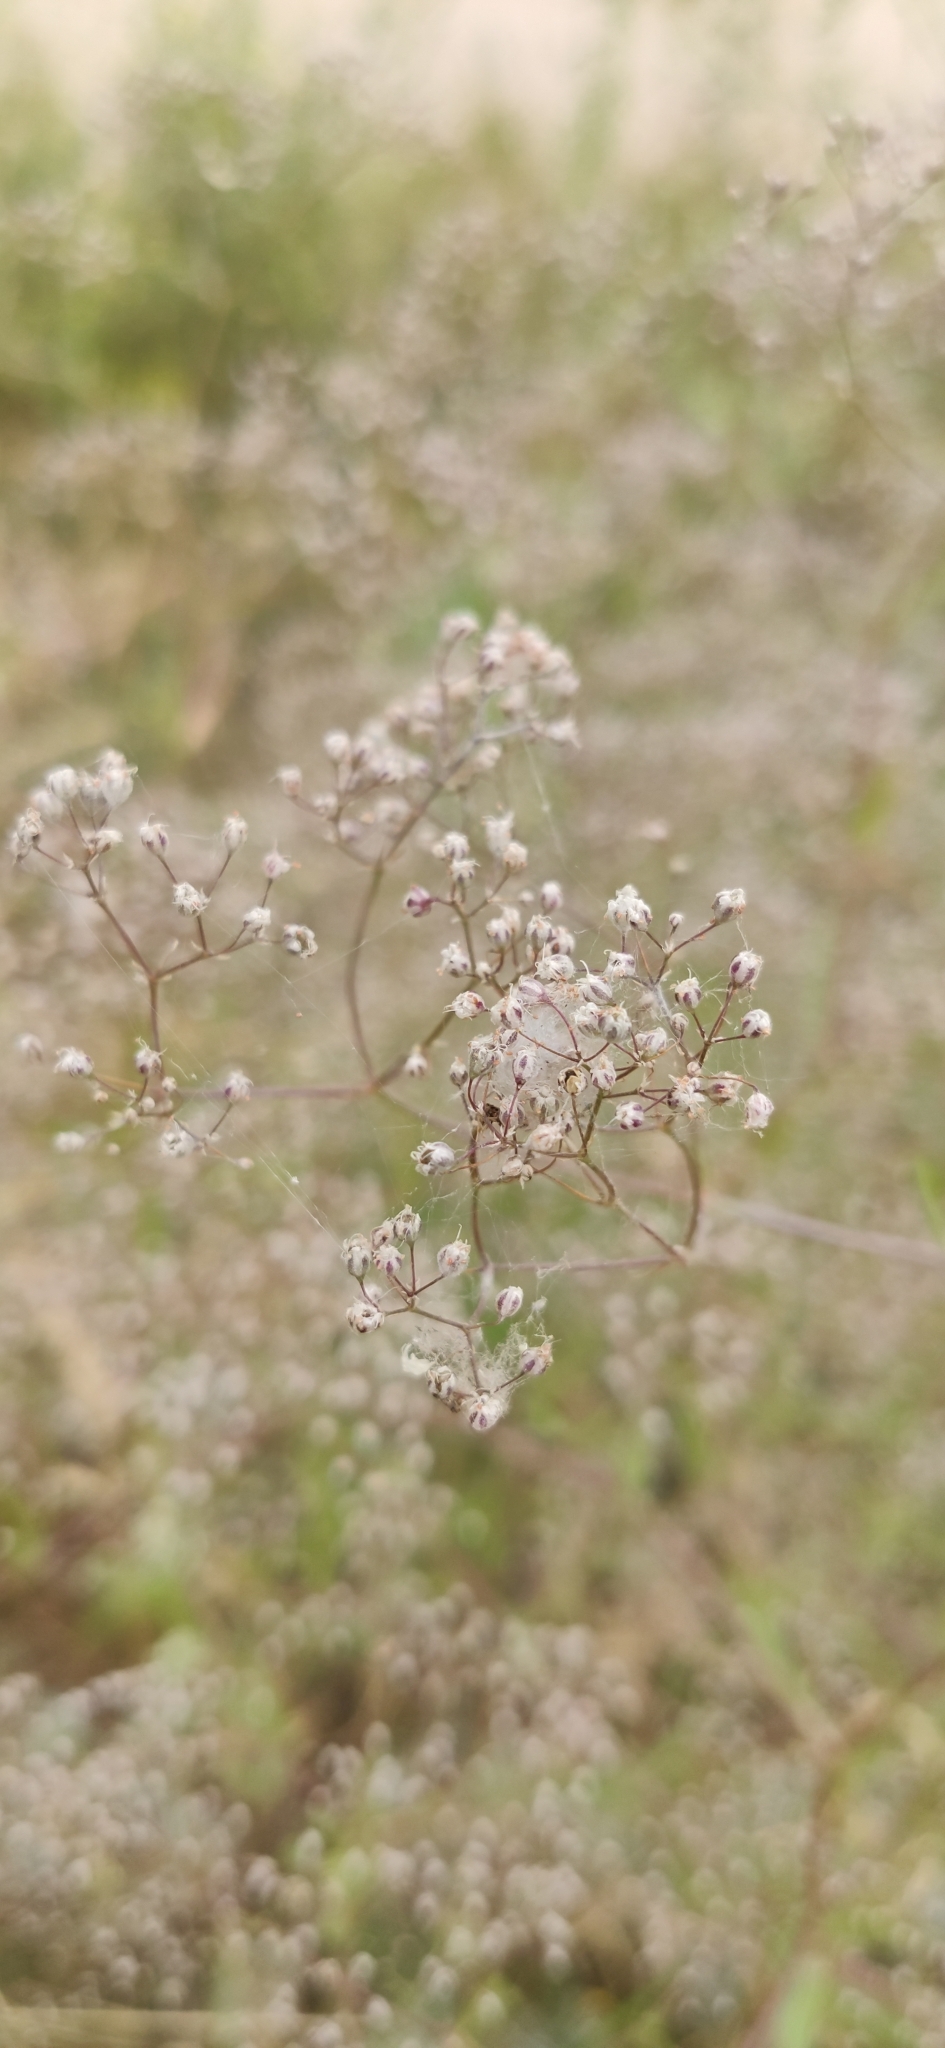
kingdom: Plantae
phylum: Tracheophyta
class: Magnoliopsida
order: Caryophyllales
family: Caryophyllaceae
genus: Gypsophila
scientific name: Gypsophila paniculata
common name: Baby's-breath
